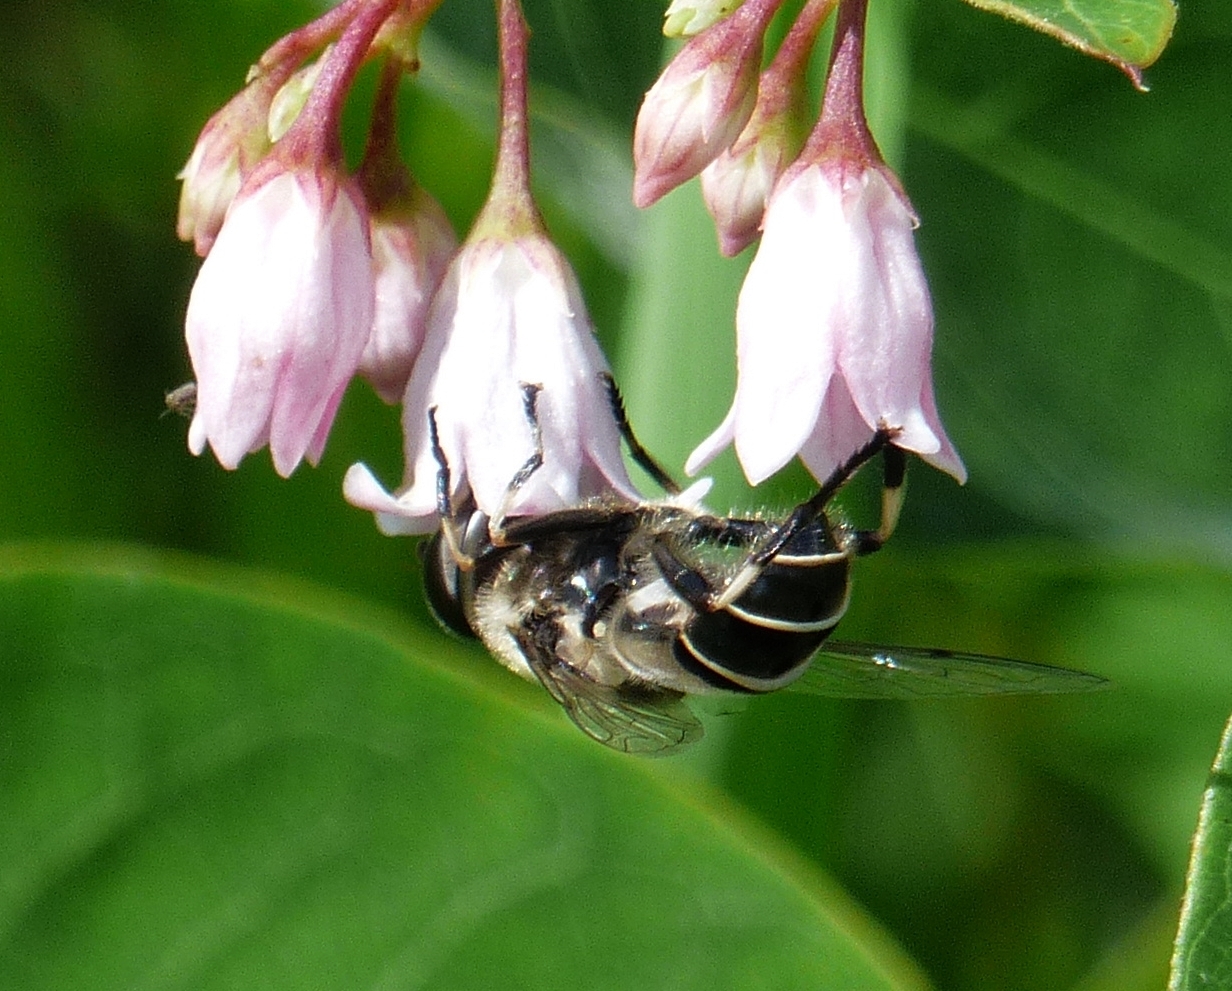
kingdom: Animalia
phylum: Arthropoda
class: Insecta
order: Diptera
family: Syrphidae
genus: Eristalis
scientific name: Eristalis dimidiata
